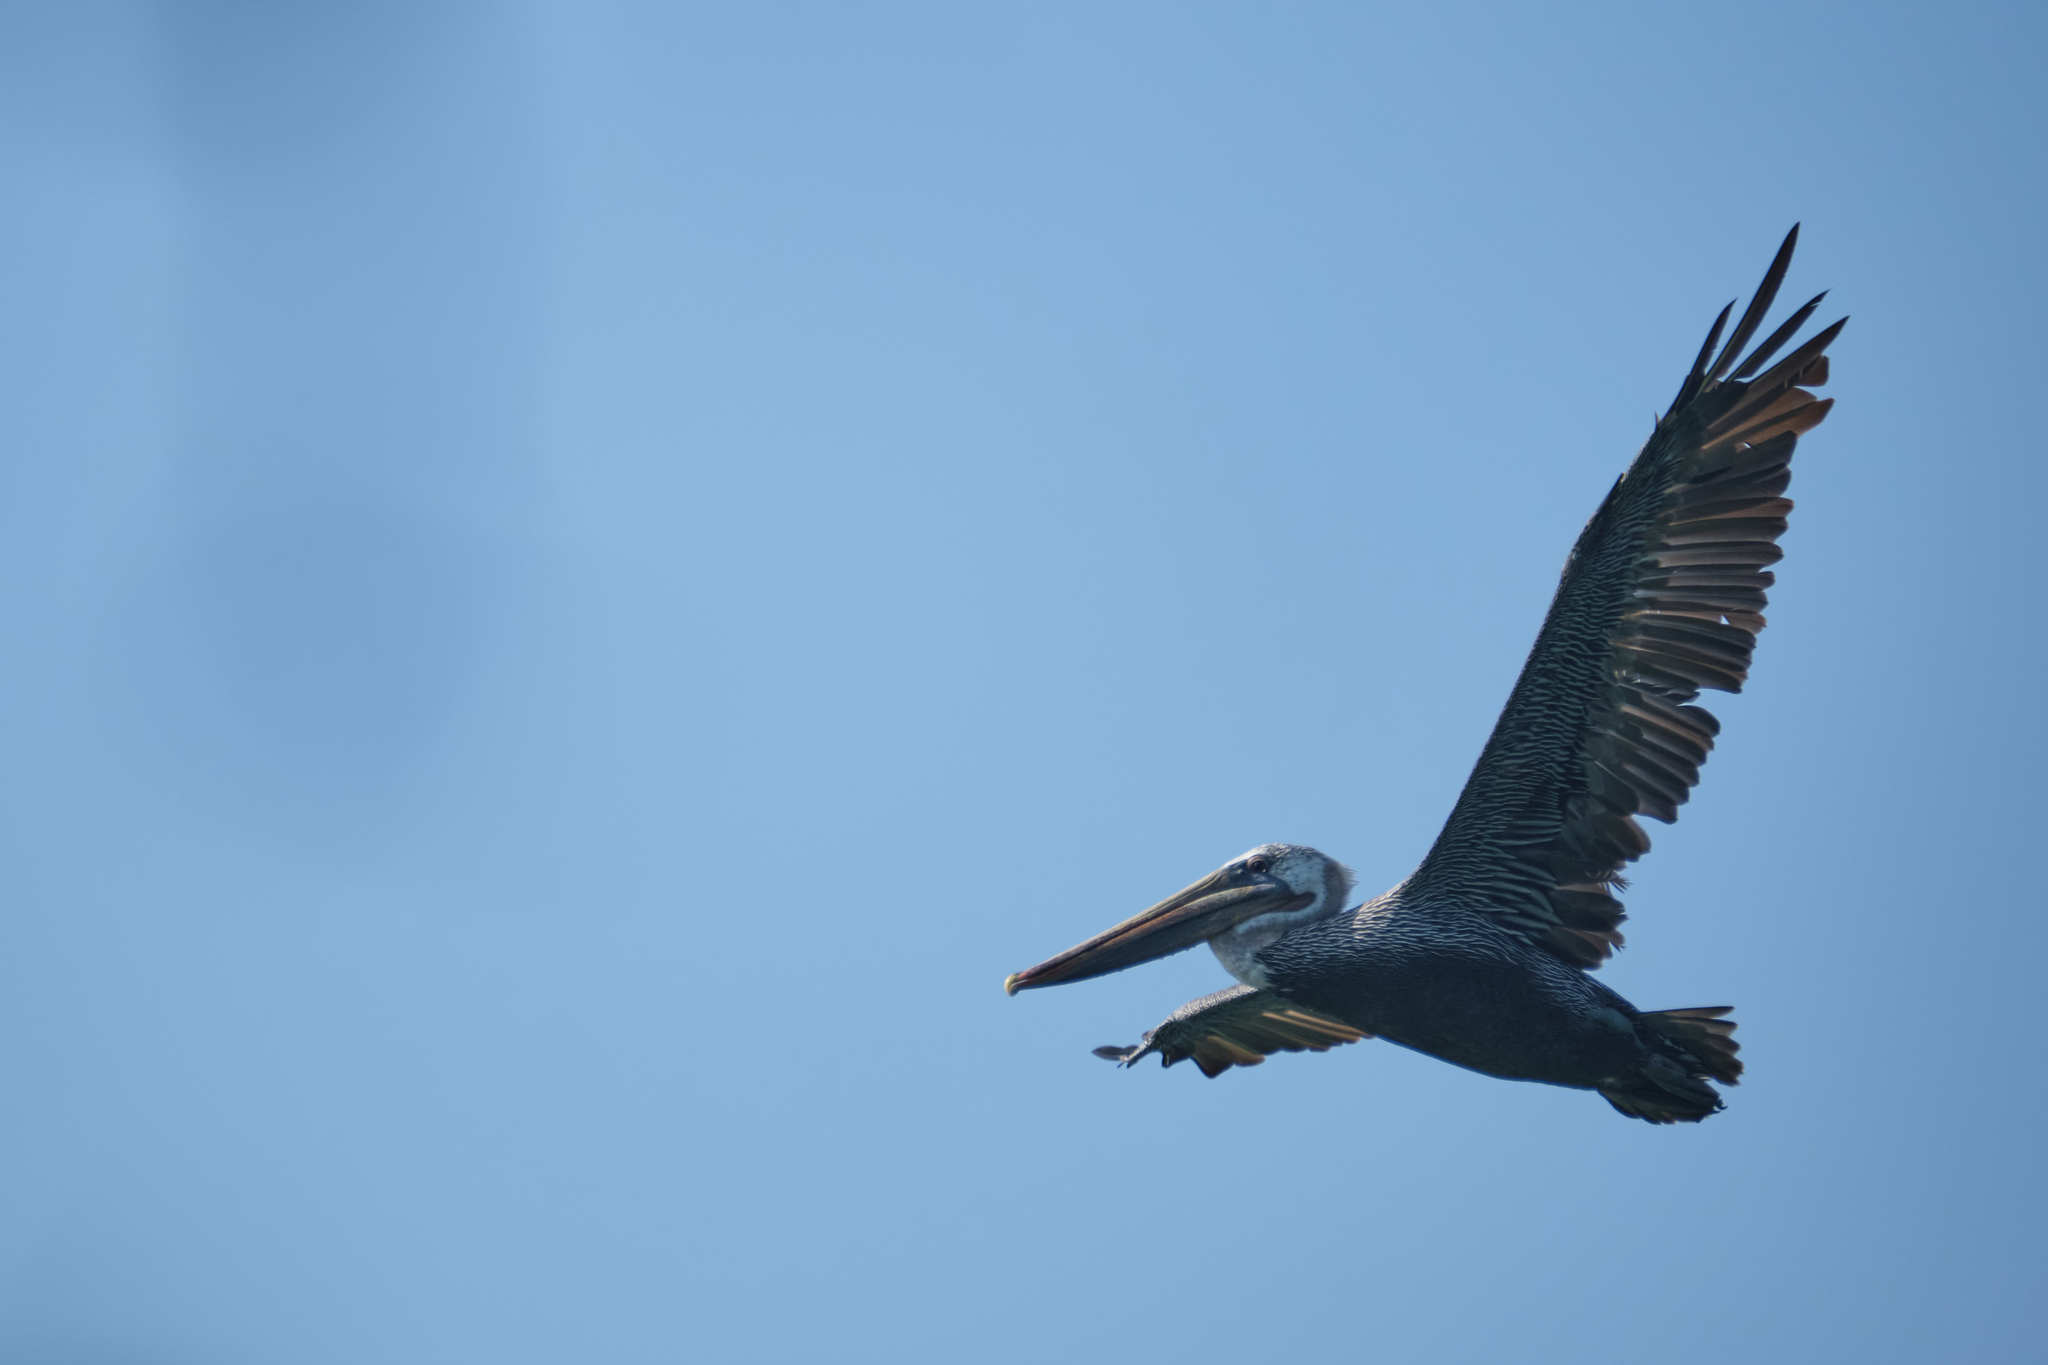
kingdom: Animalia
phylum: Chordata
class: Aves
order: Pelecaniformes
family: Pelecanidae
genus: Pelecanus
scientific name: Pelecanus occidentalis
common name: Brown pelican
